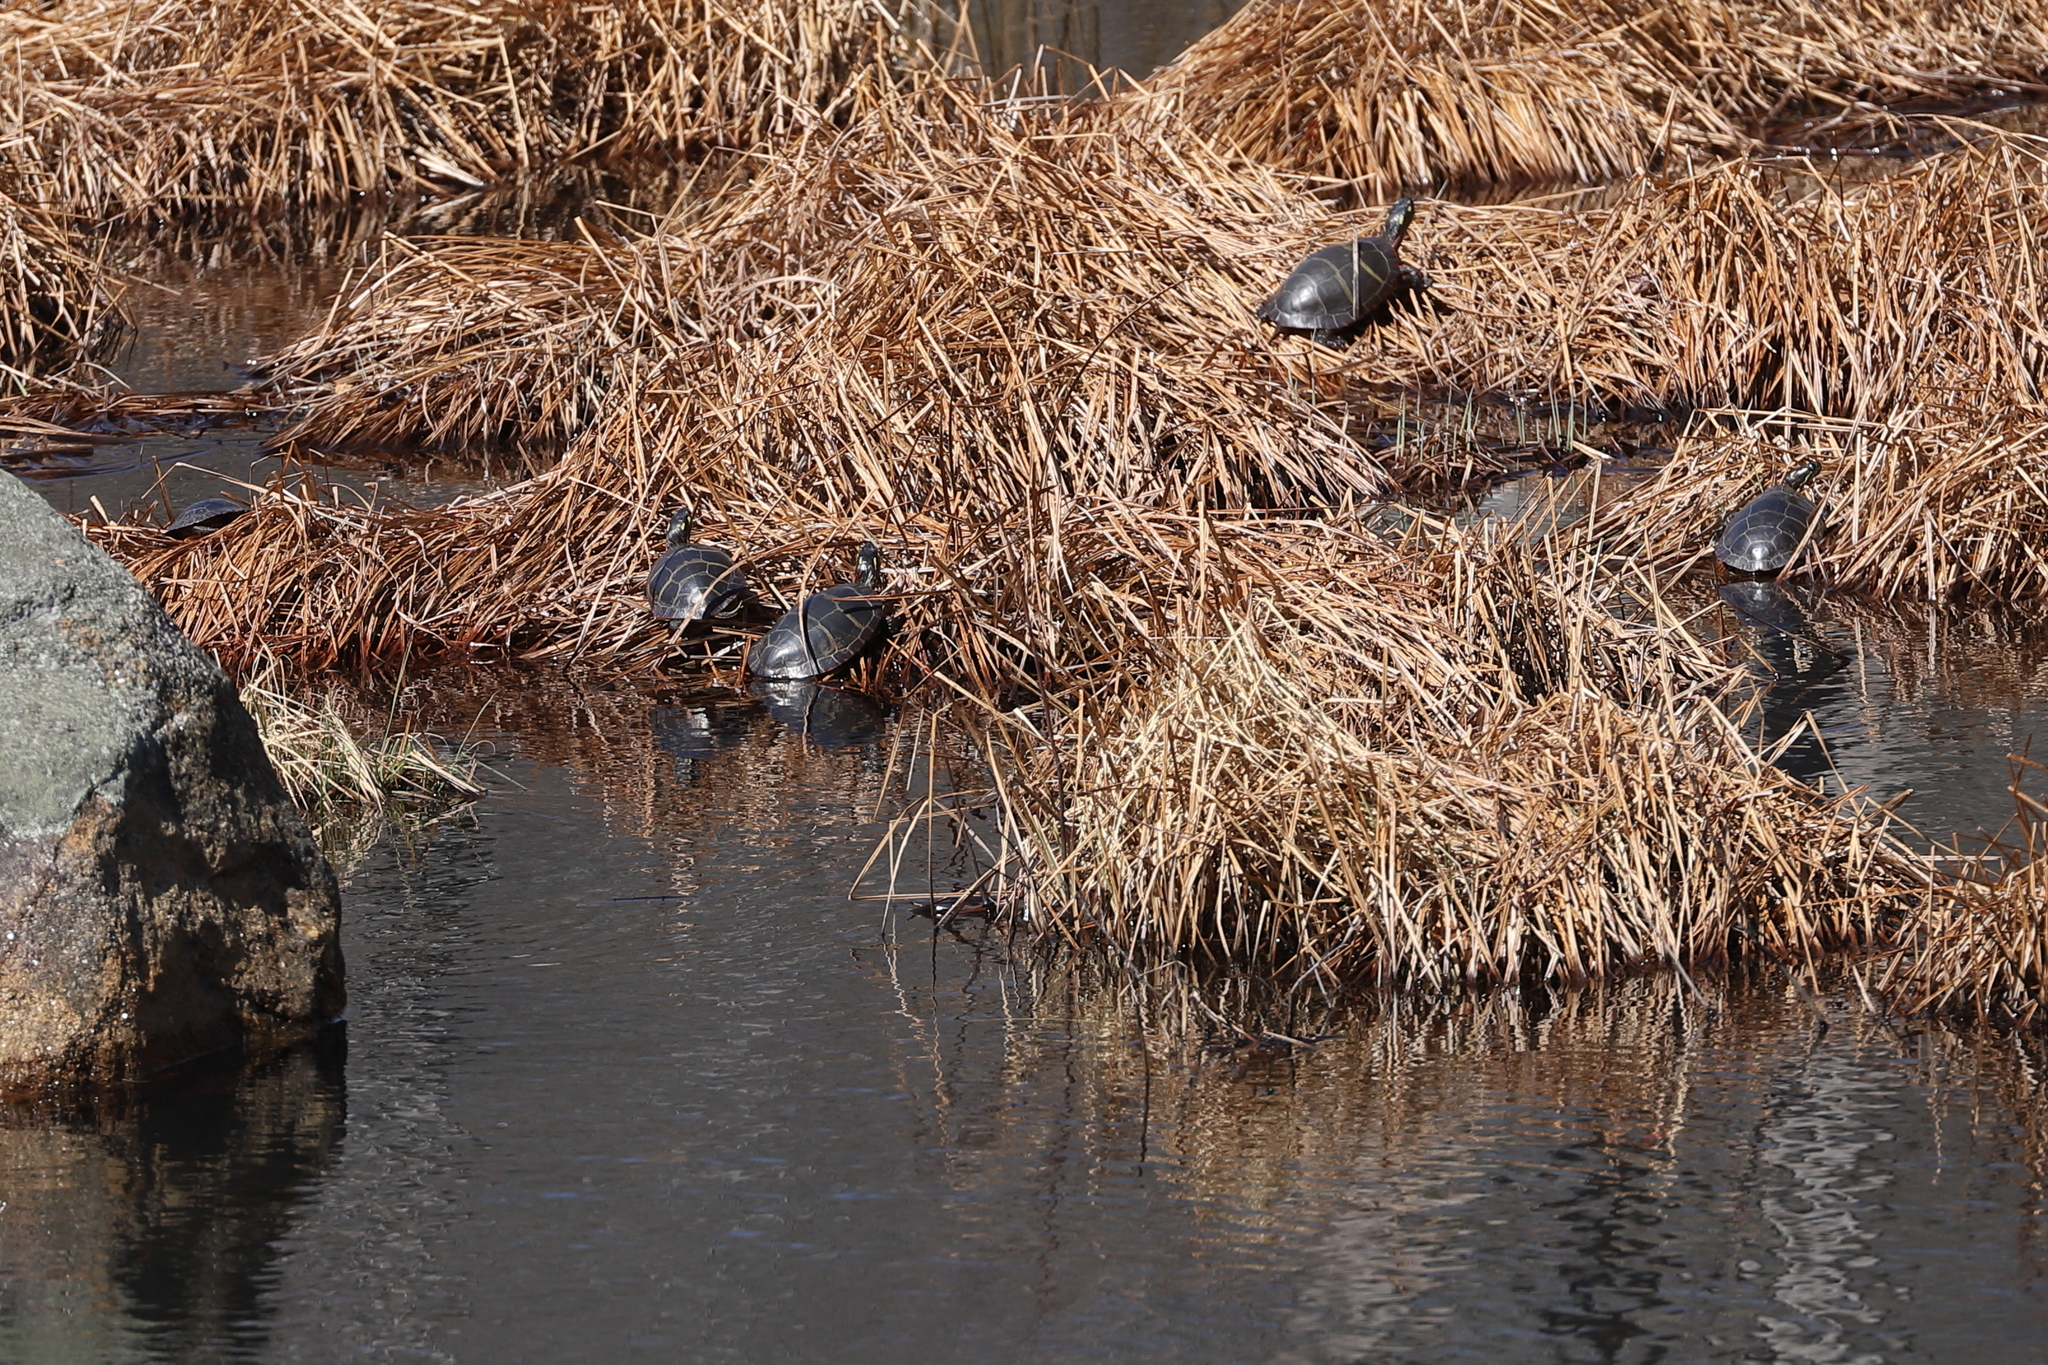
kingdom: Animalia
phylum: Chordata
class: Testudines
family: Emydidae
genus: Chrysemys
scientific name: Chrysemys picta
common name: Painted turtle
